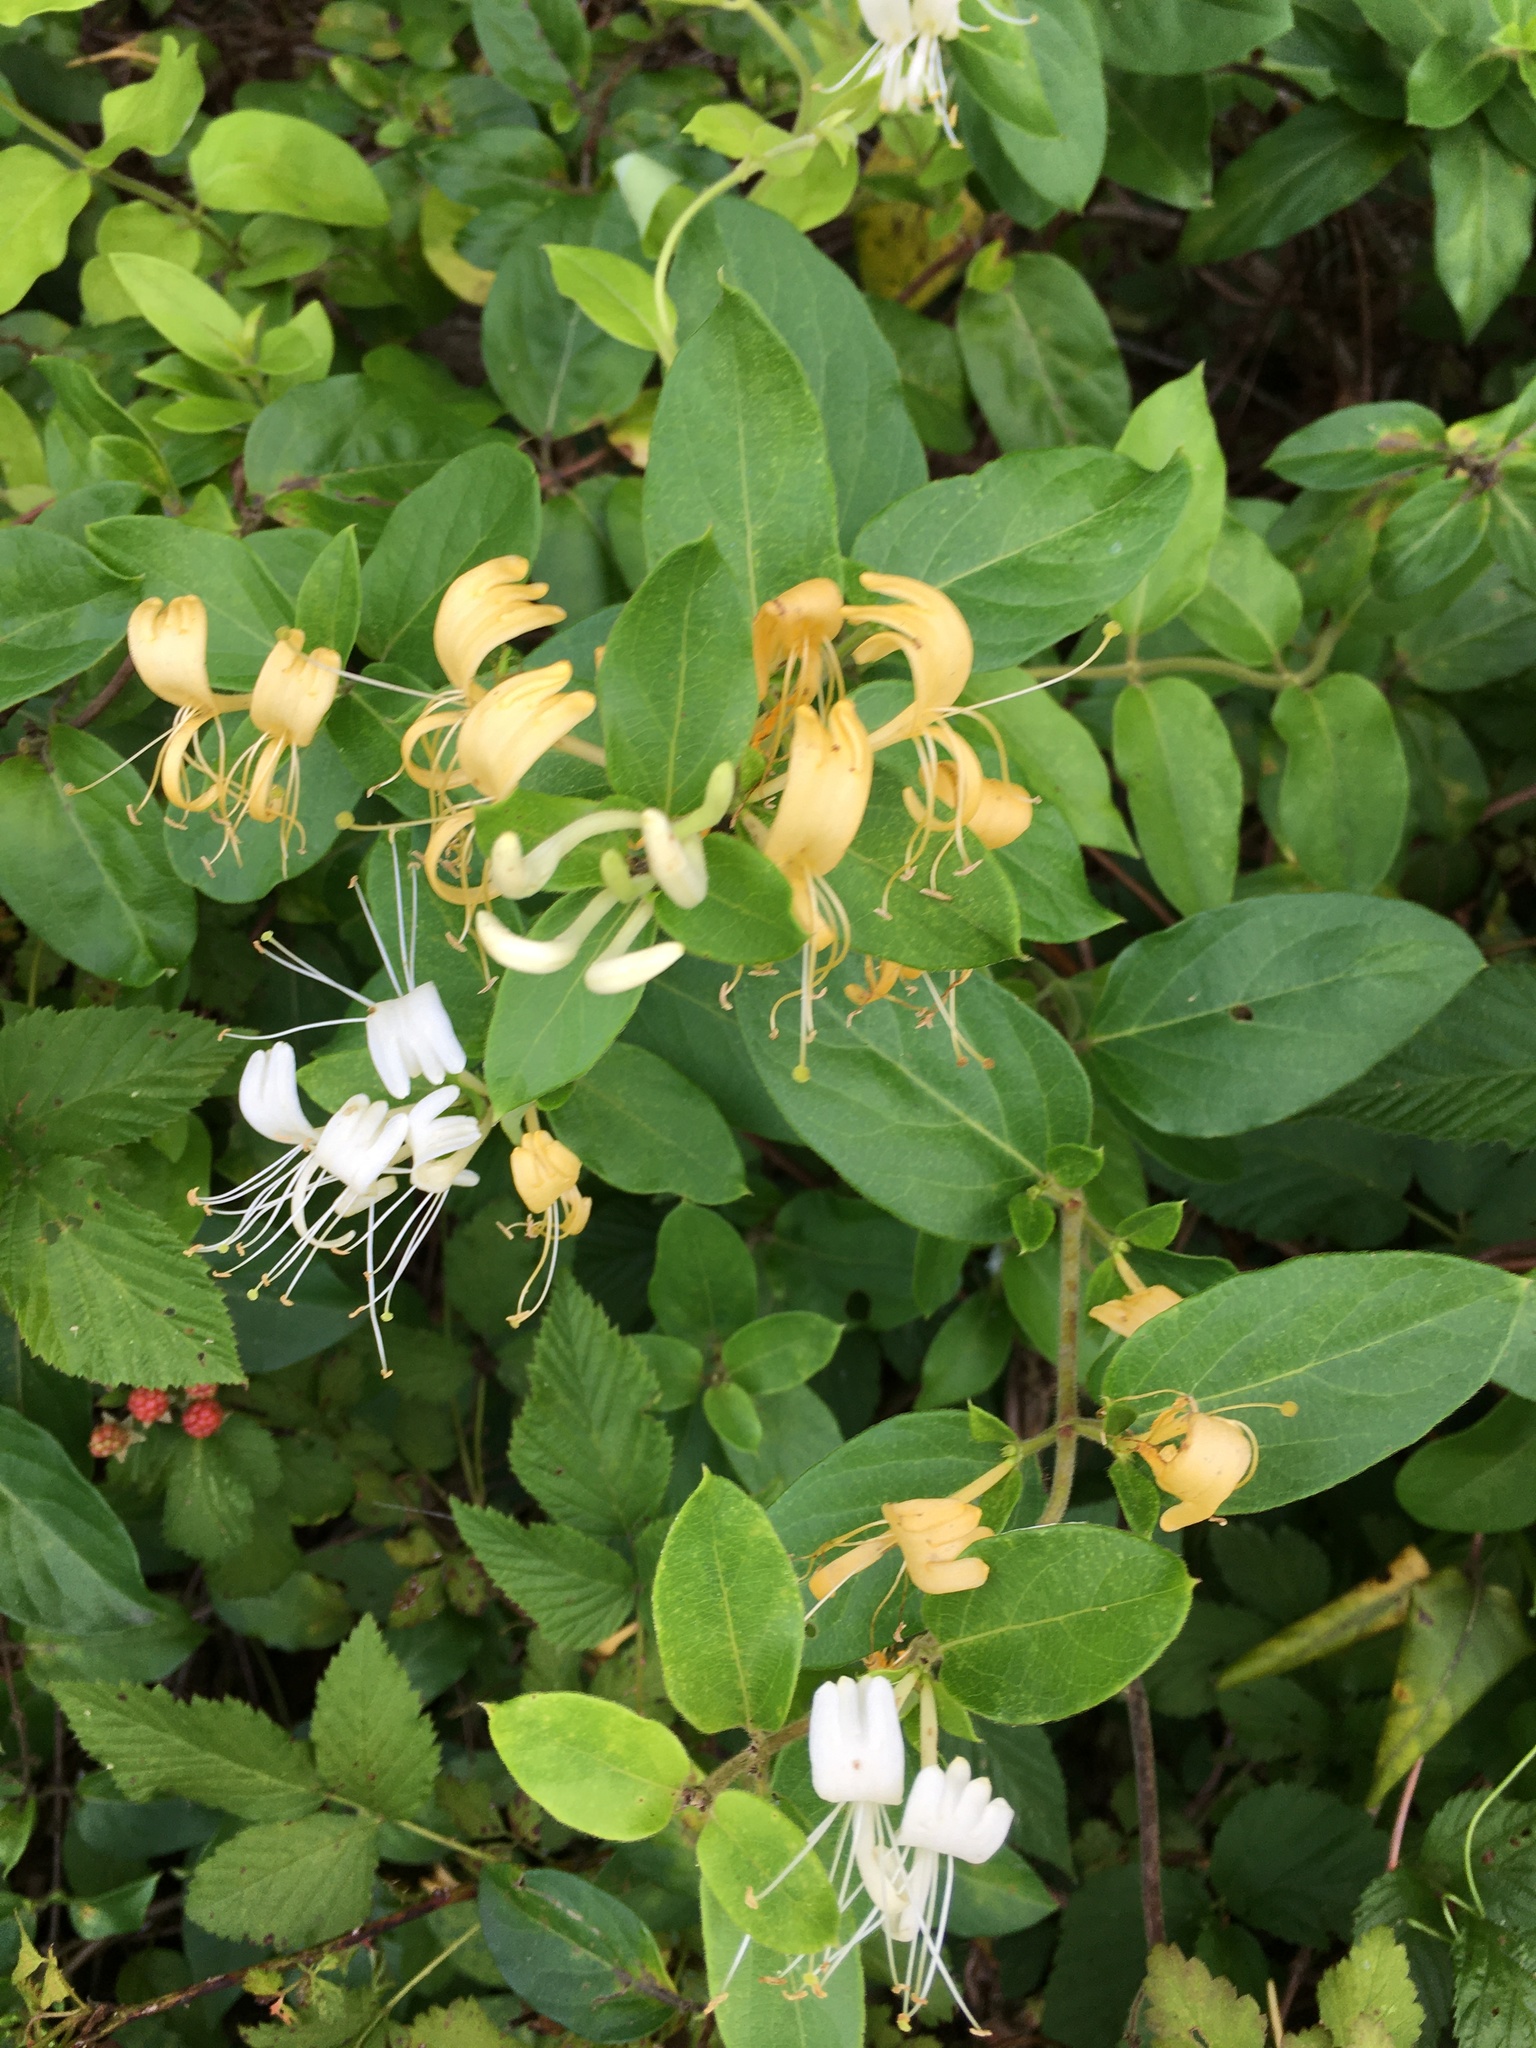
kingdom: Plantae
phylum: Tracheophyta
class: Magnoliopsida
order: Dipsacales
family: Caprifoliaceae
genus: Lonicera
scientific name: Lonicera japonica
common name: Japanese honeysuckle
